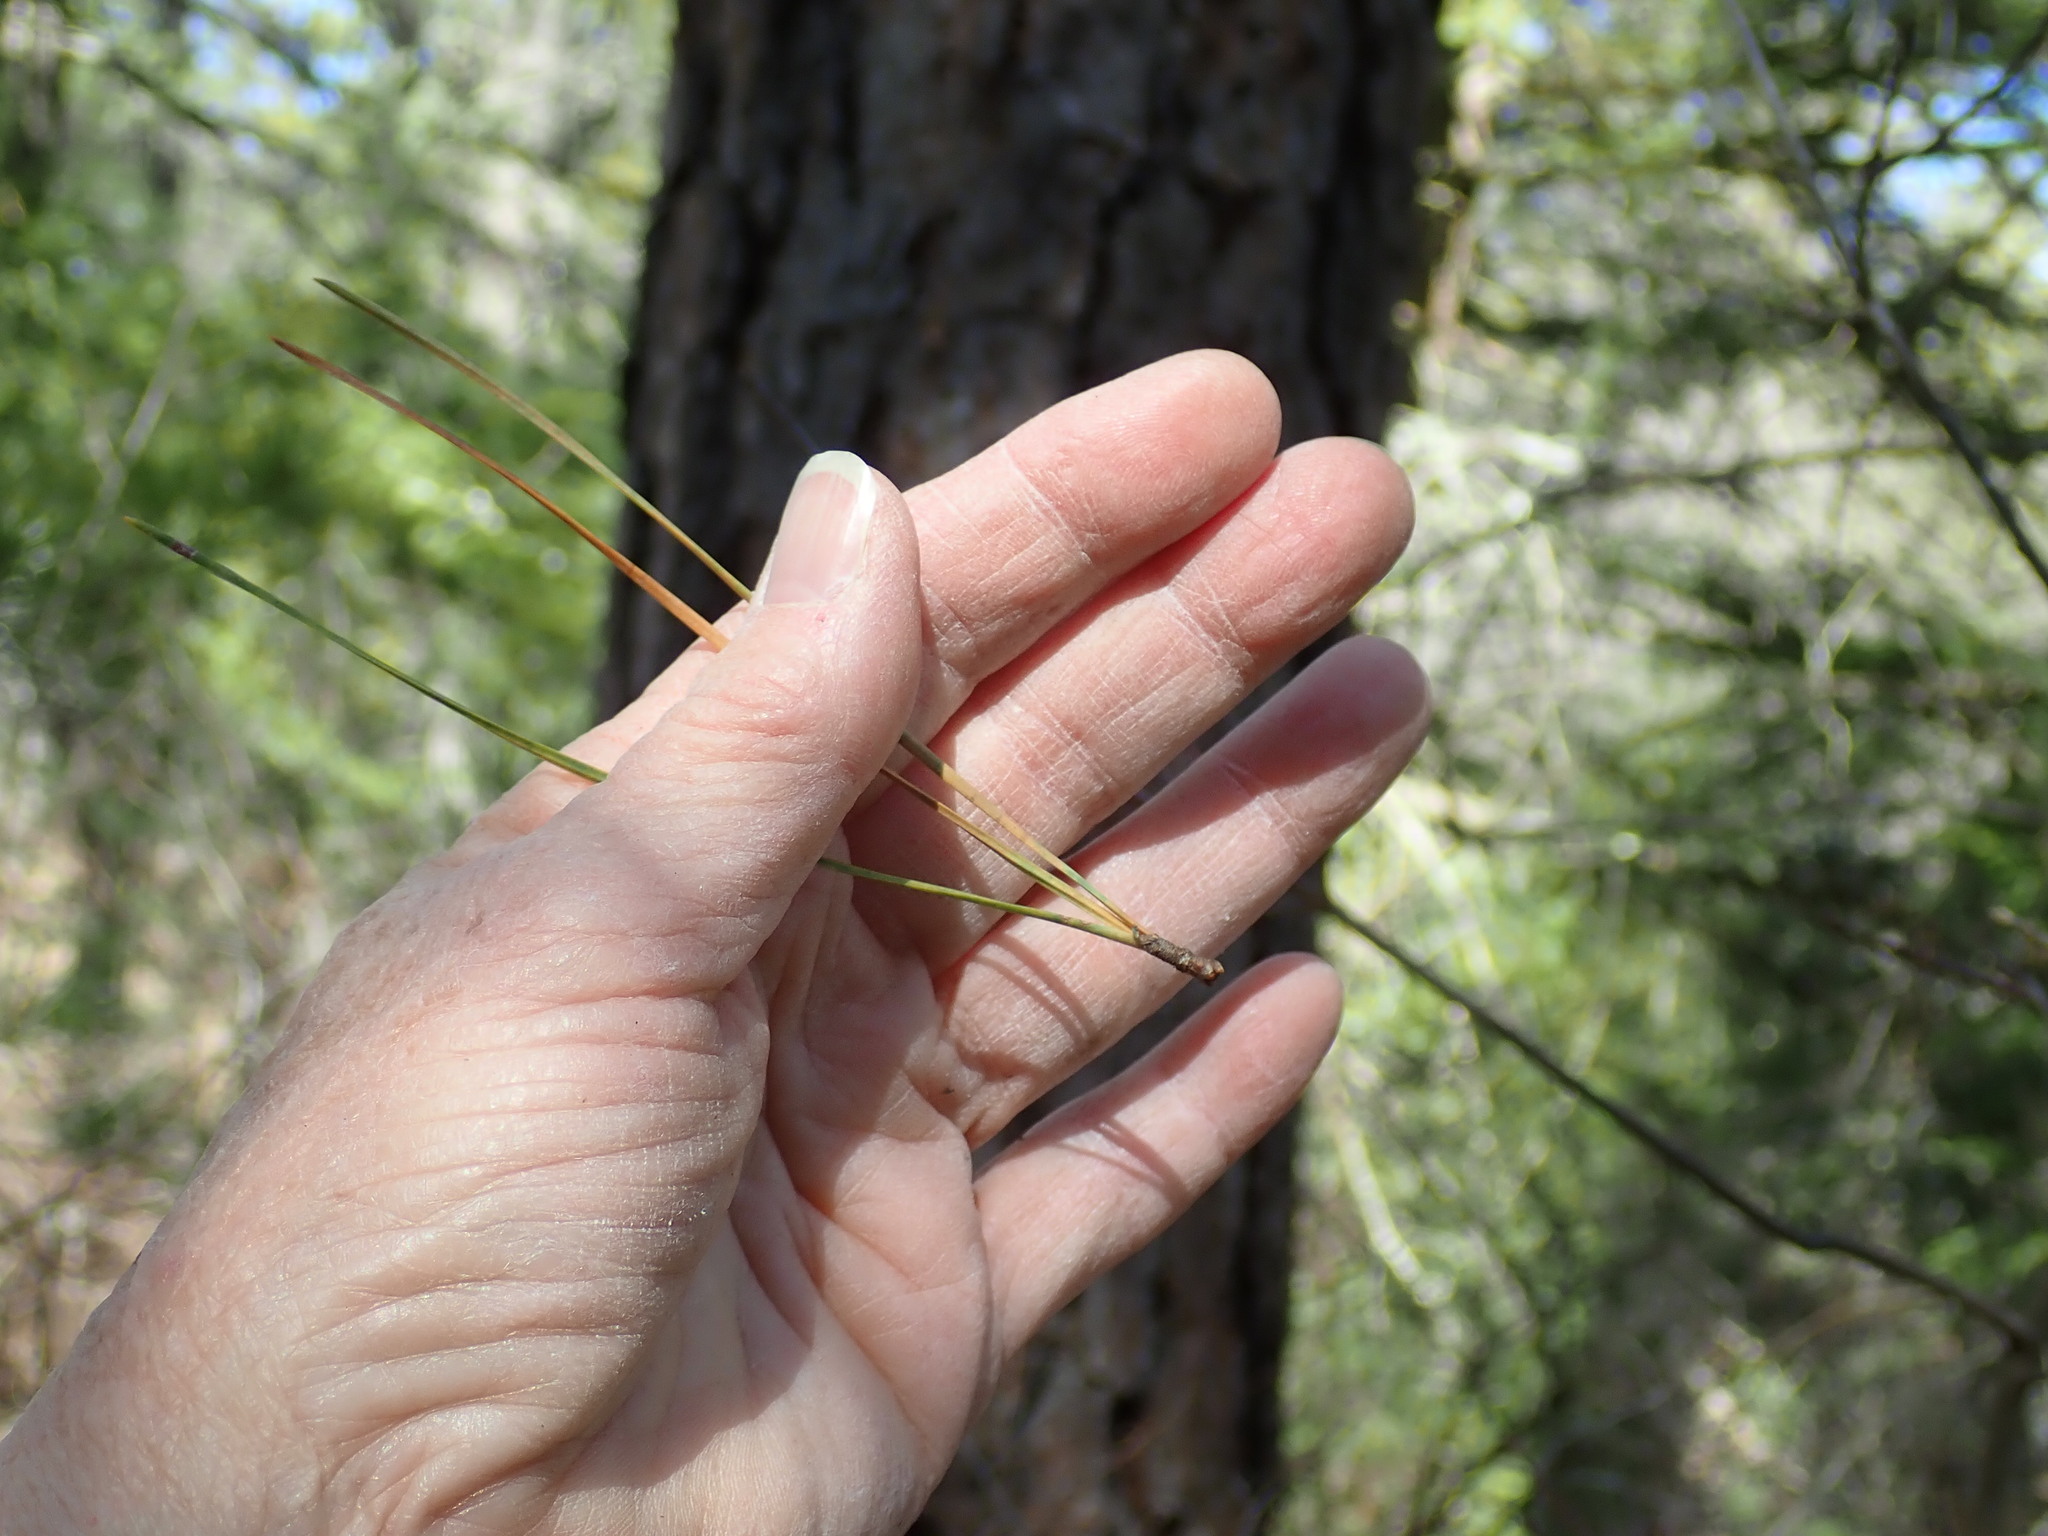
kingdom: Plantae
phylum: Tracheophyta
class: Pinopsida
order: Pinales
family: Pinaceae
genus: Pinus
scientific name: Pinus rigida
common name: Pitch pine
